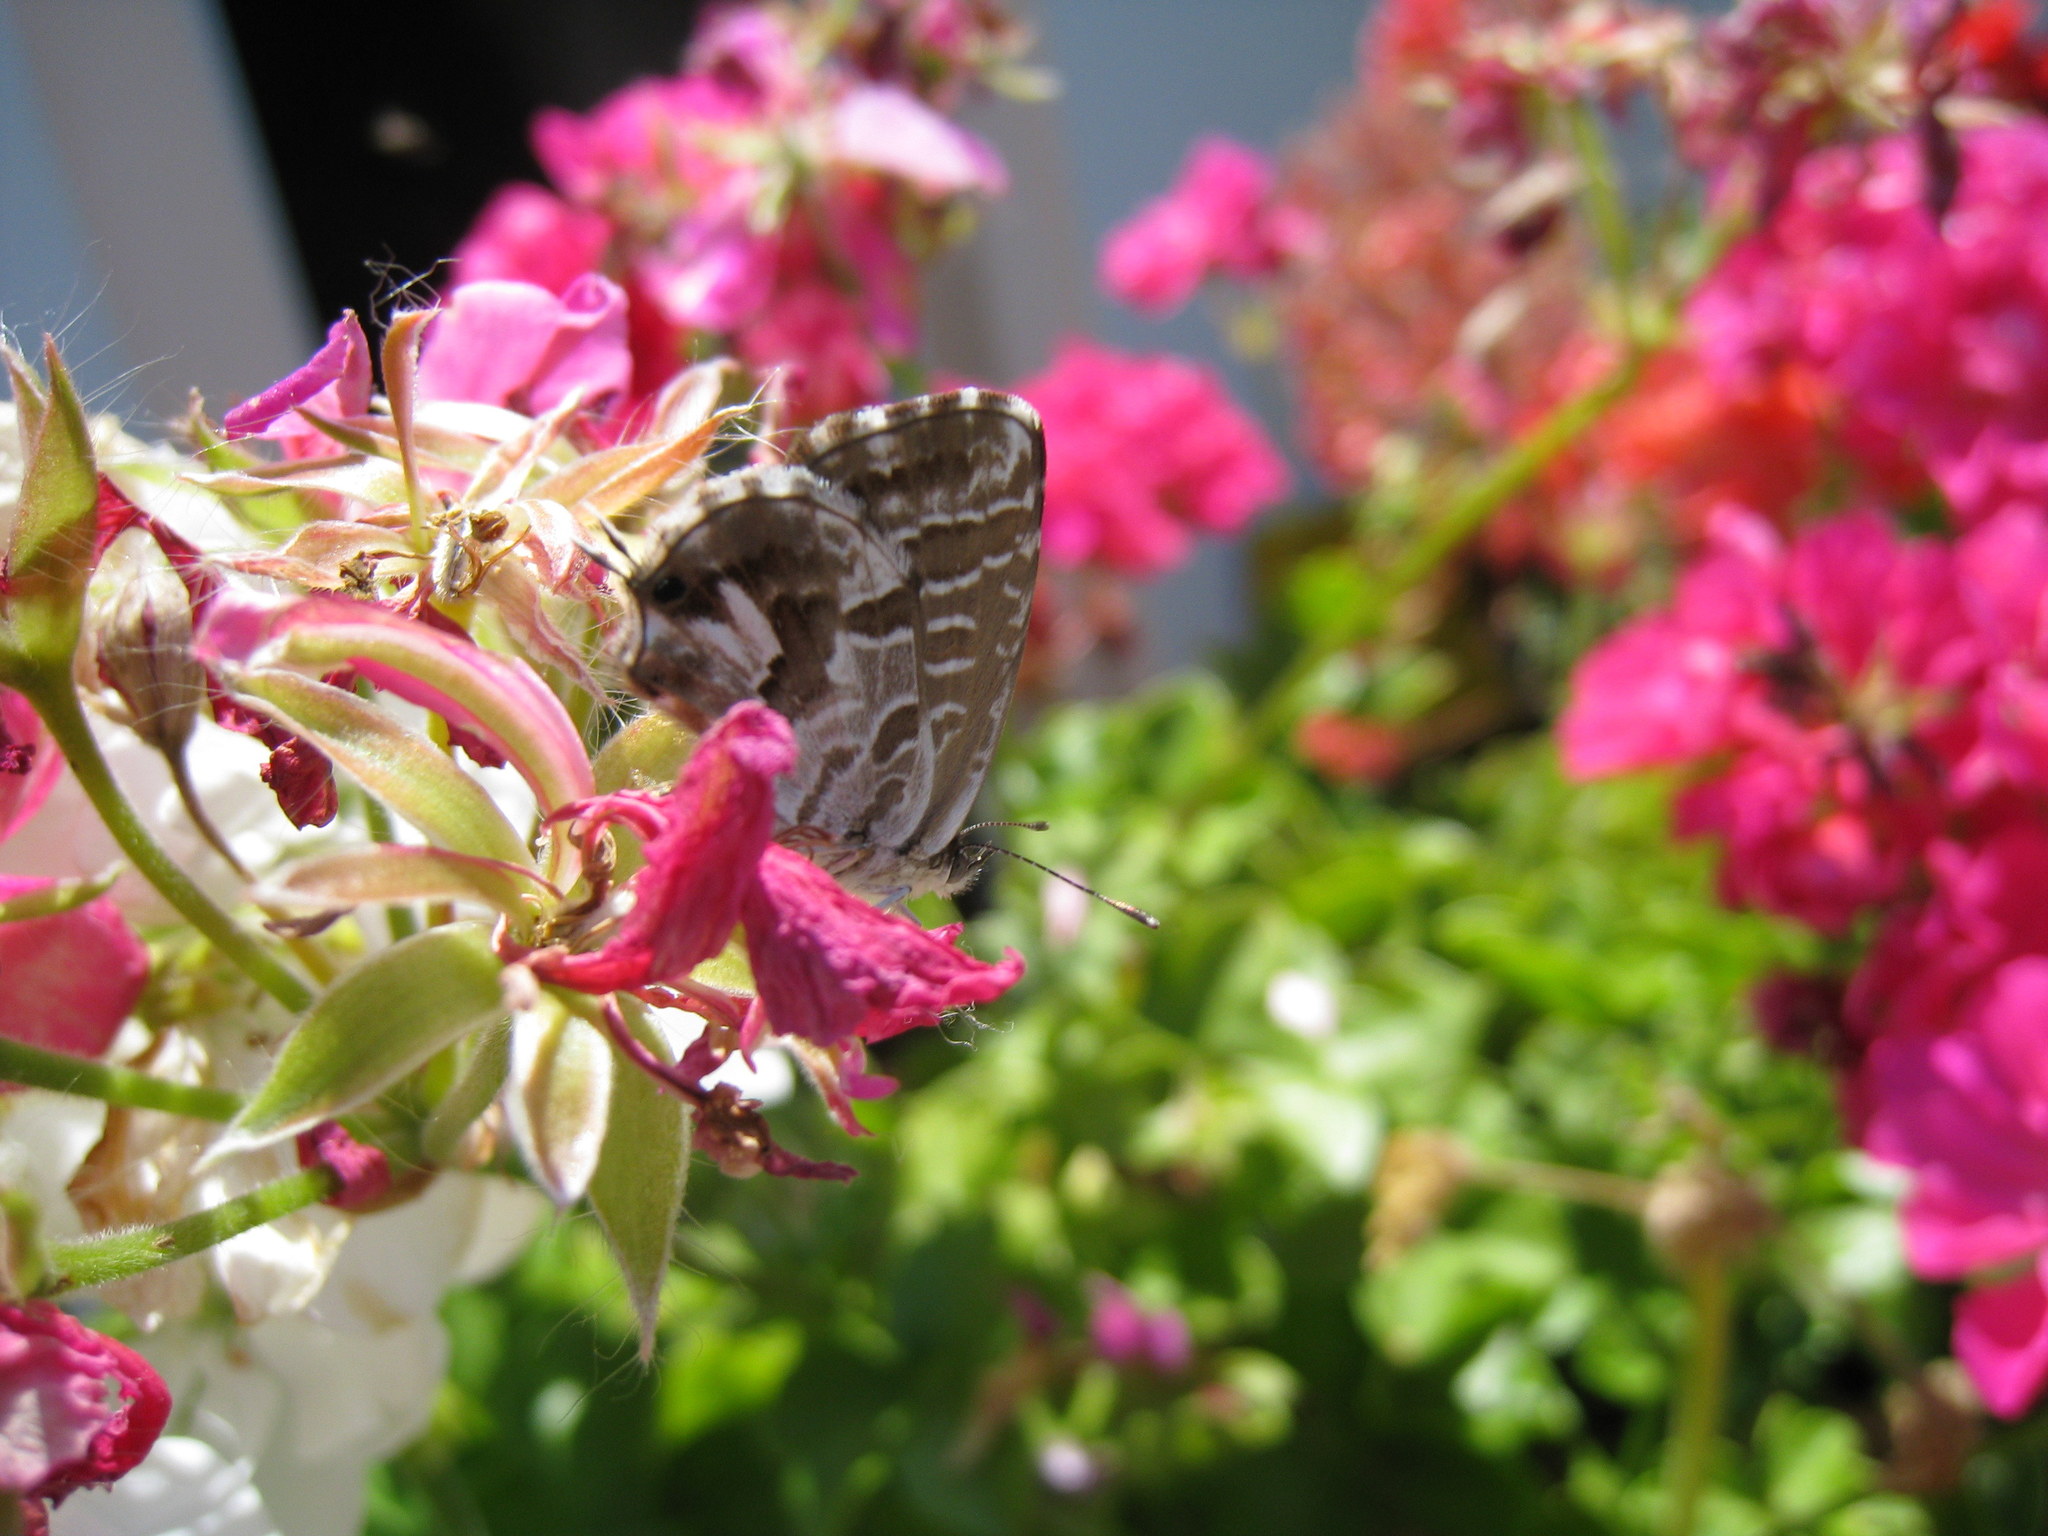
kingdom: Animalia
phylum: Arthropoda
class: Insecta
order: Lepidoptera
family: Lycaenidae
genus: Cacyreus
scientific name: Cacyreus marshalli
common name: Geranium bronze
